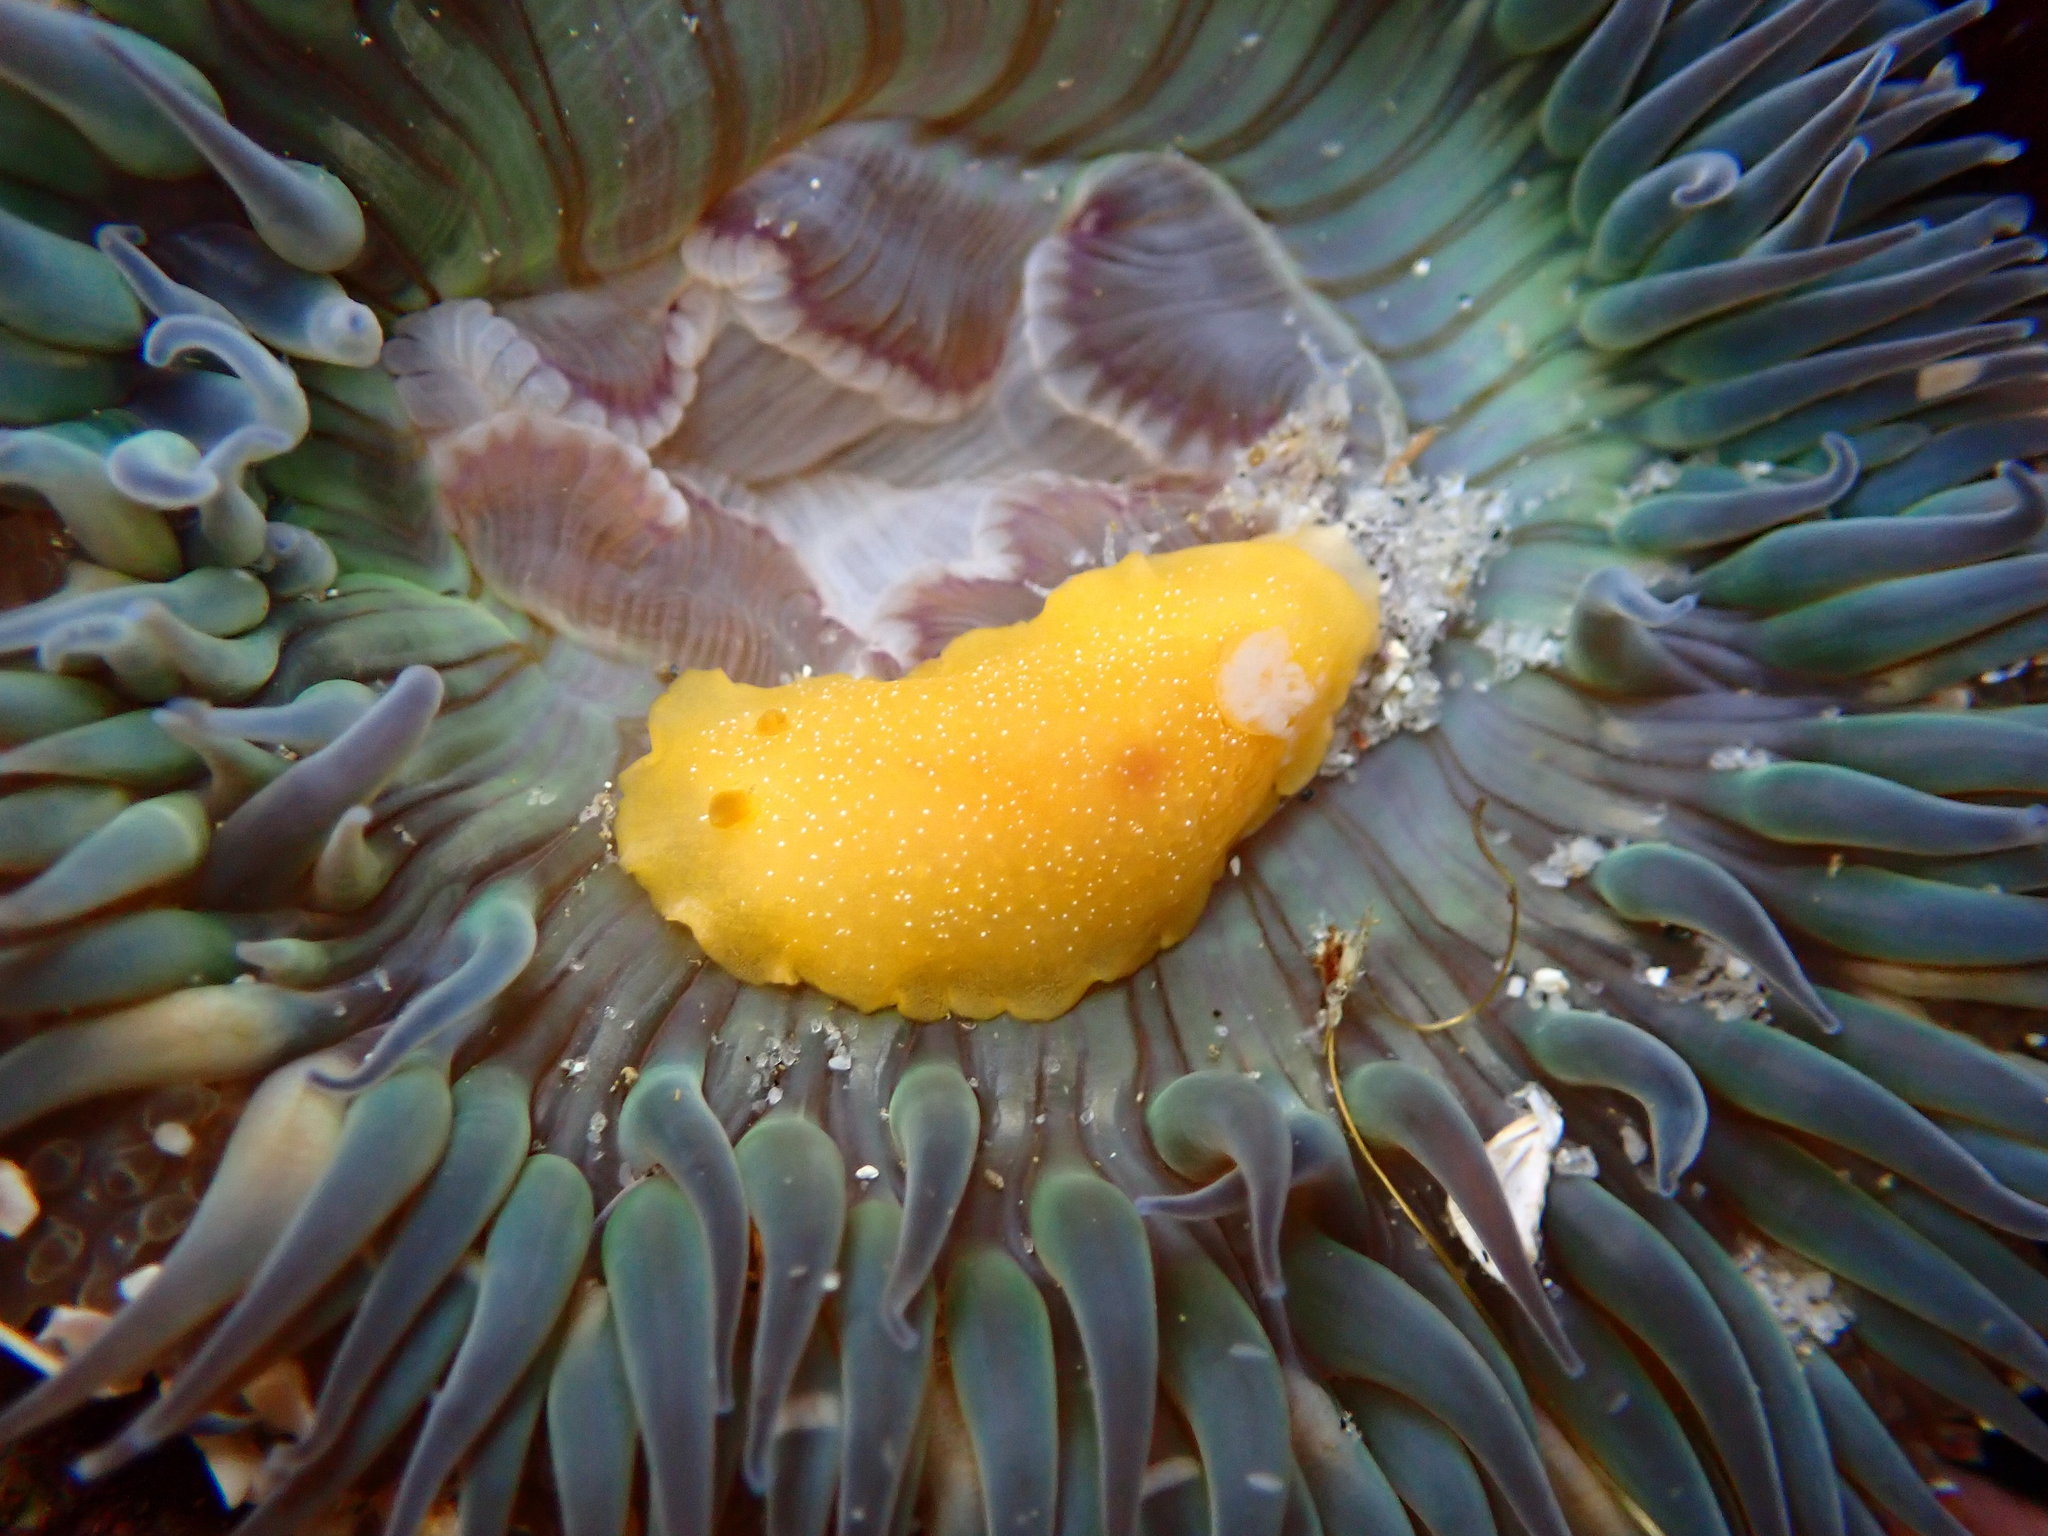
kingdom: Animalia
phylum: Mollusca
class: Gastropoda
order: Nudibranchia
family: Dendrodorididae
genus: Doriopsilla
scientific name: Doriopsilla albopunctata
